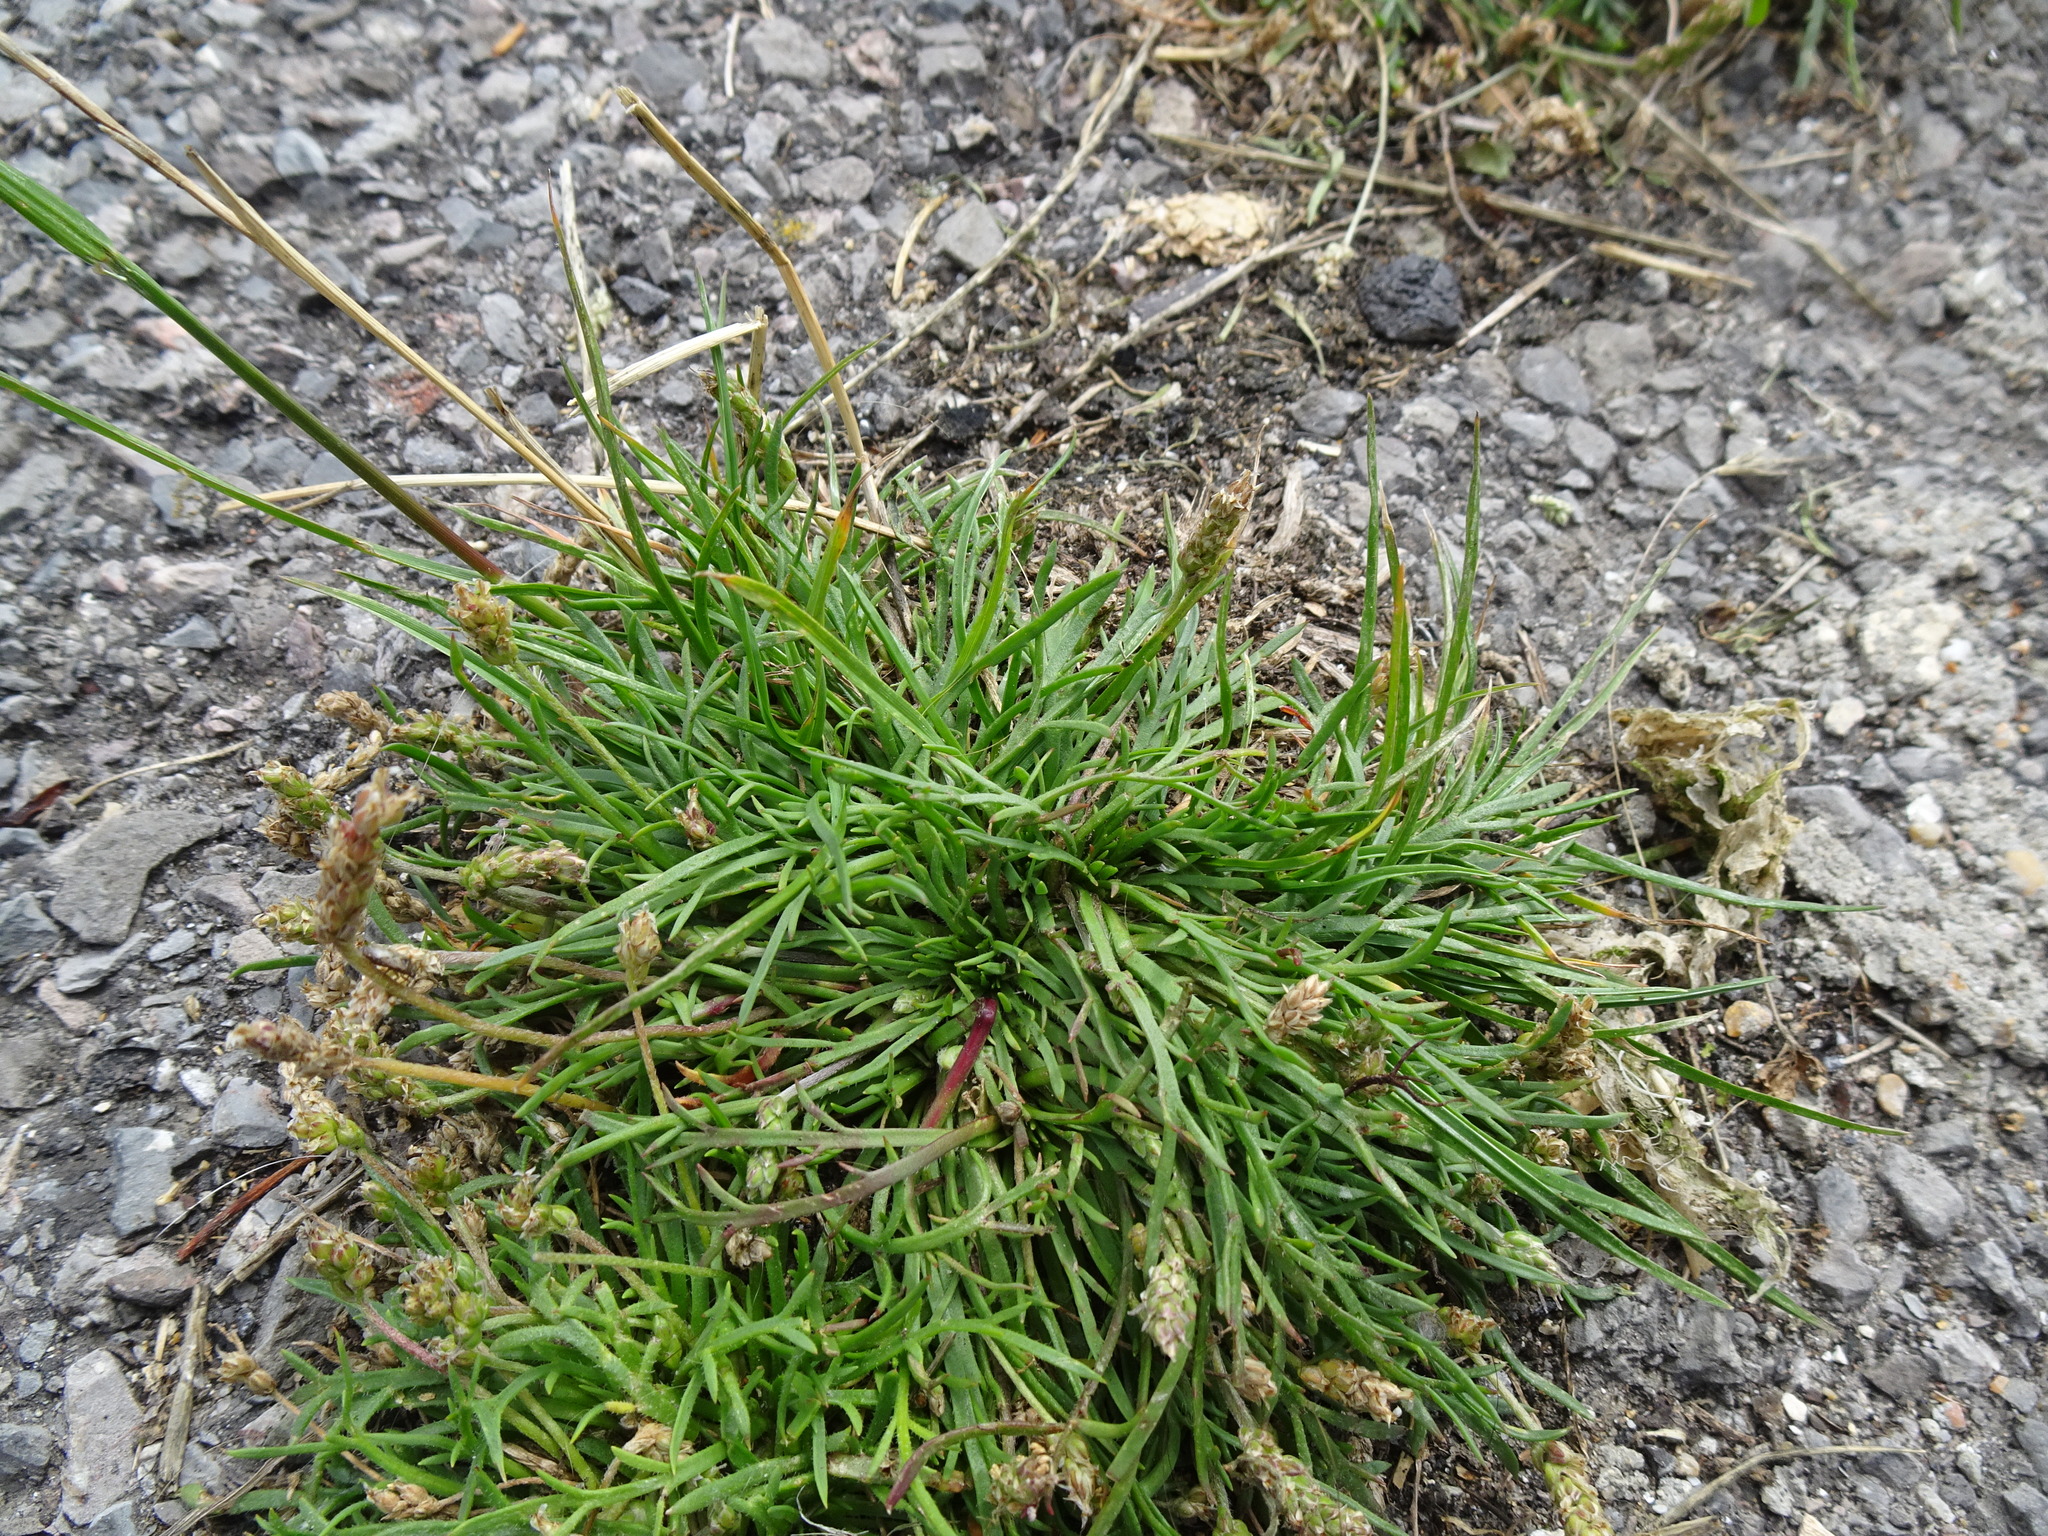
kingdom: Plantae
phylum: Tracheophyta
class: Magnoliopsida
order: Lamiales
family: Plantaginaceae
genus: Plantago
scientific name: Plantago coronopus
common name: Buck's-horn plantain
